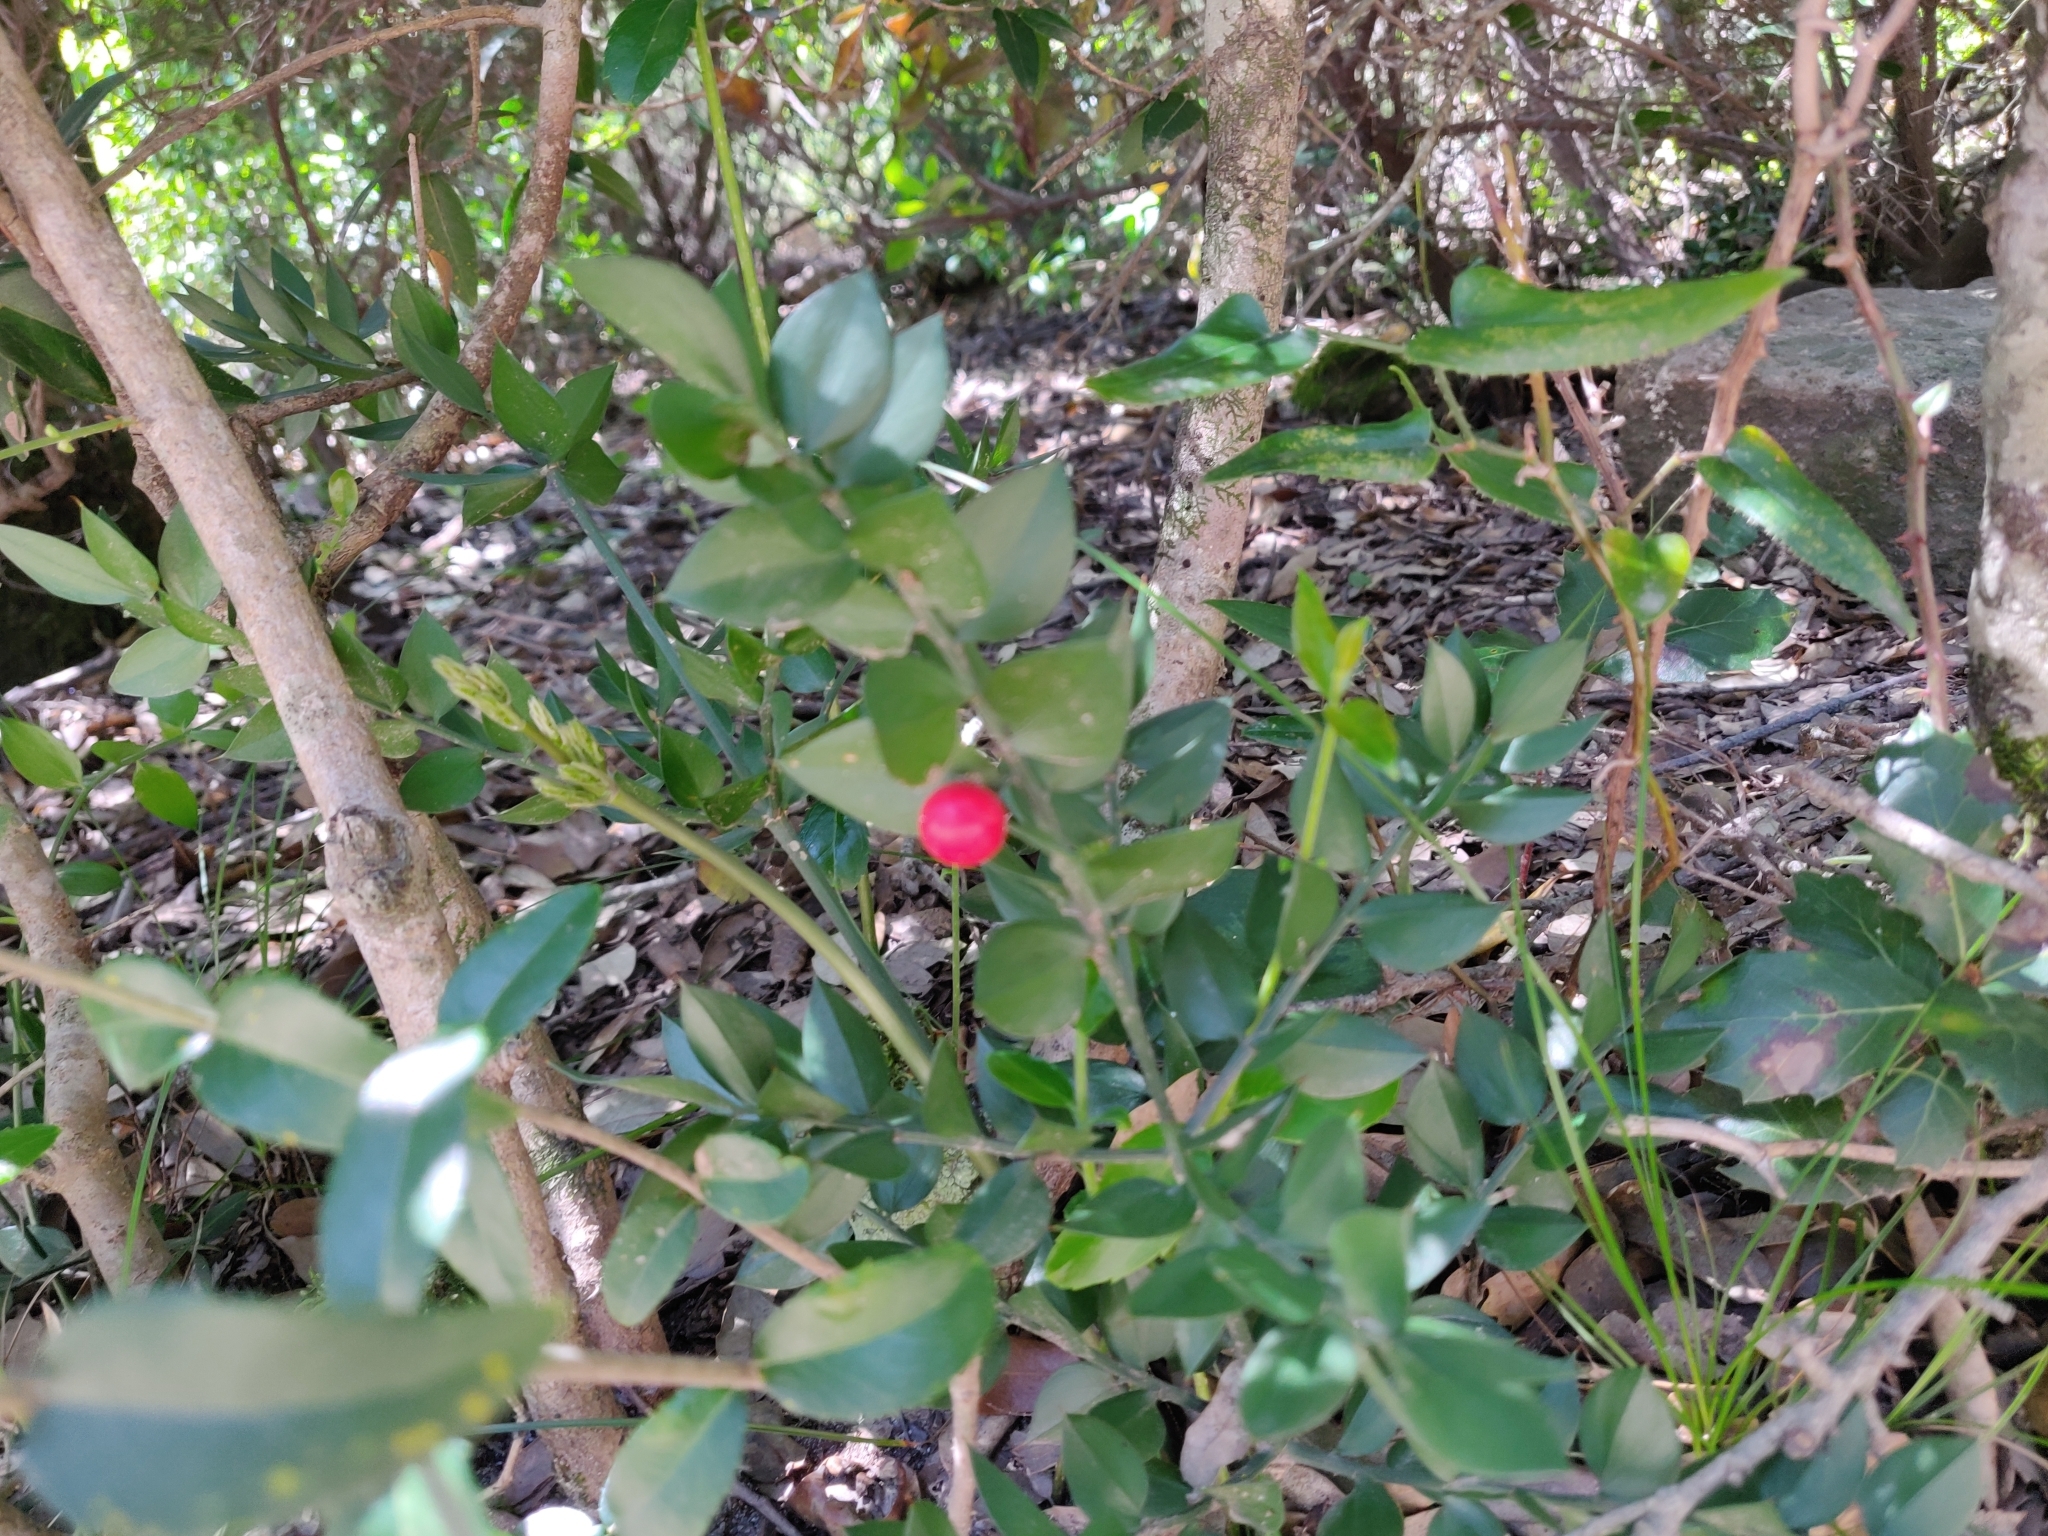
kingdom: Plantae
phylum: Tracheophyta
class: Liliopsida
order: Asparagales
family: Asparagaceae
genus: Ruscus
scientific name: Ruscus aculeatus
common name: Butcher's-broom
